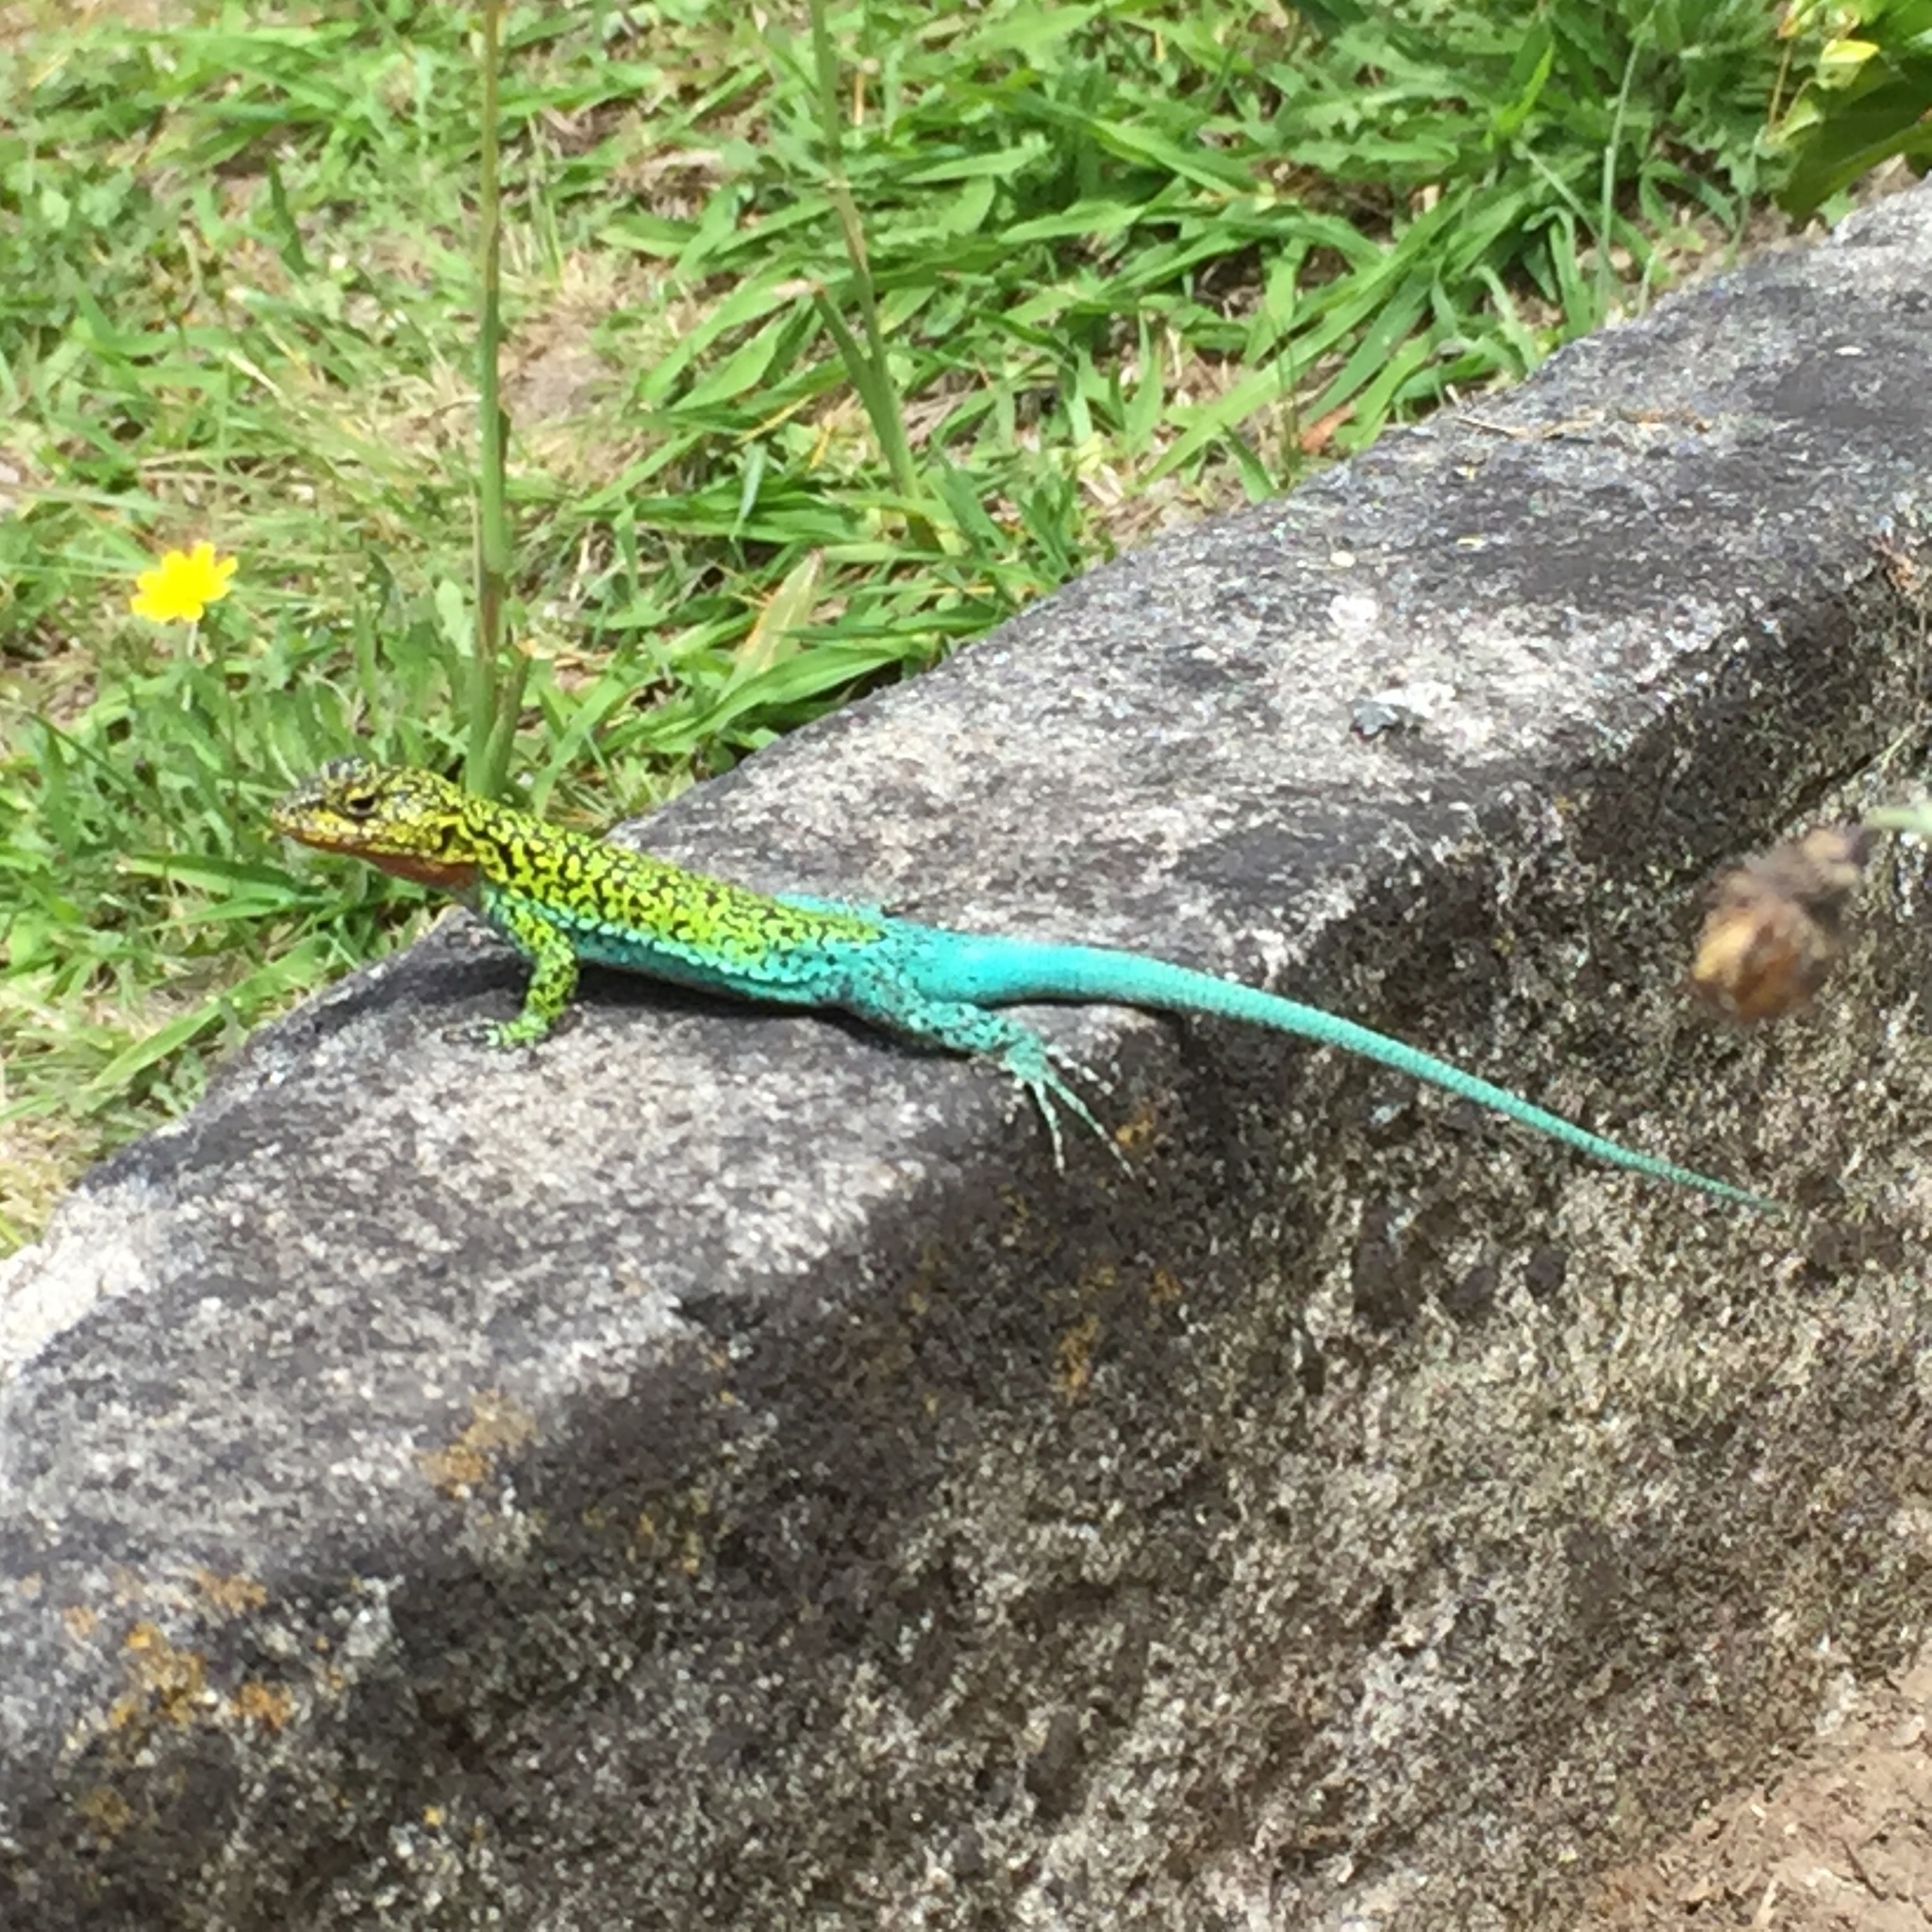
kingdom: Animalia
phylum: Chordata
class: Squamata
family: Liolaemidae
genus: Liolaemus
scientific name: Liolaemus tenuis
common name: Thin tree iguana
